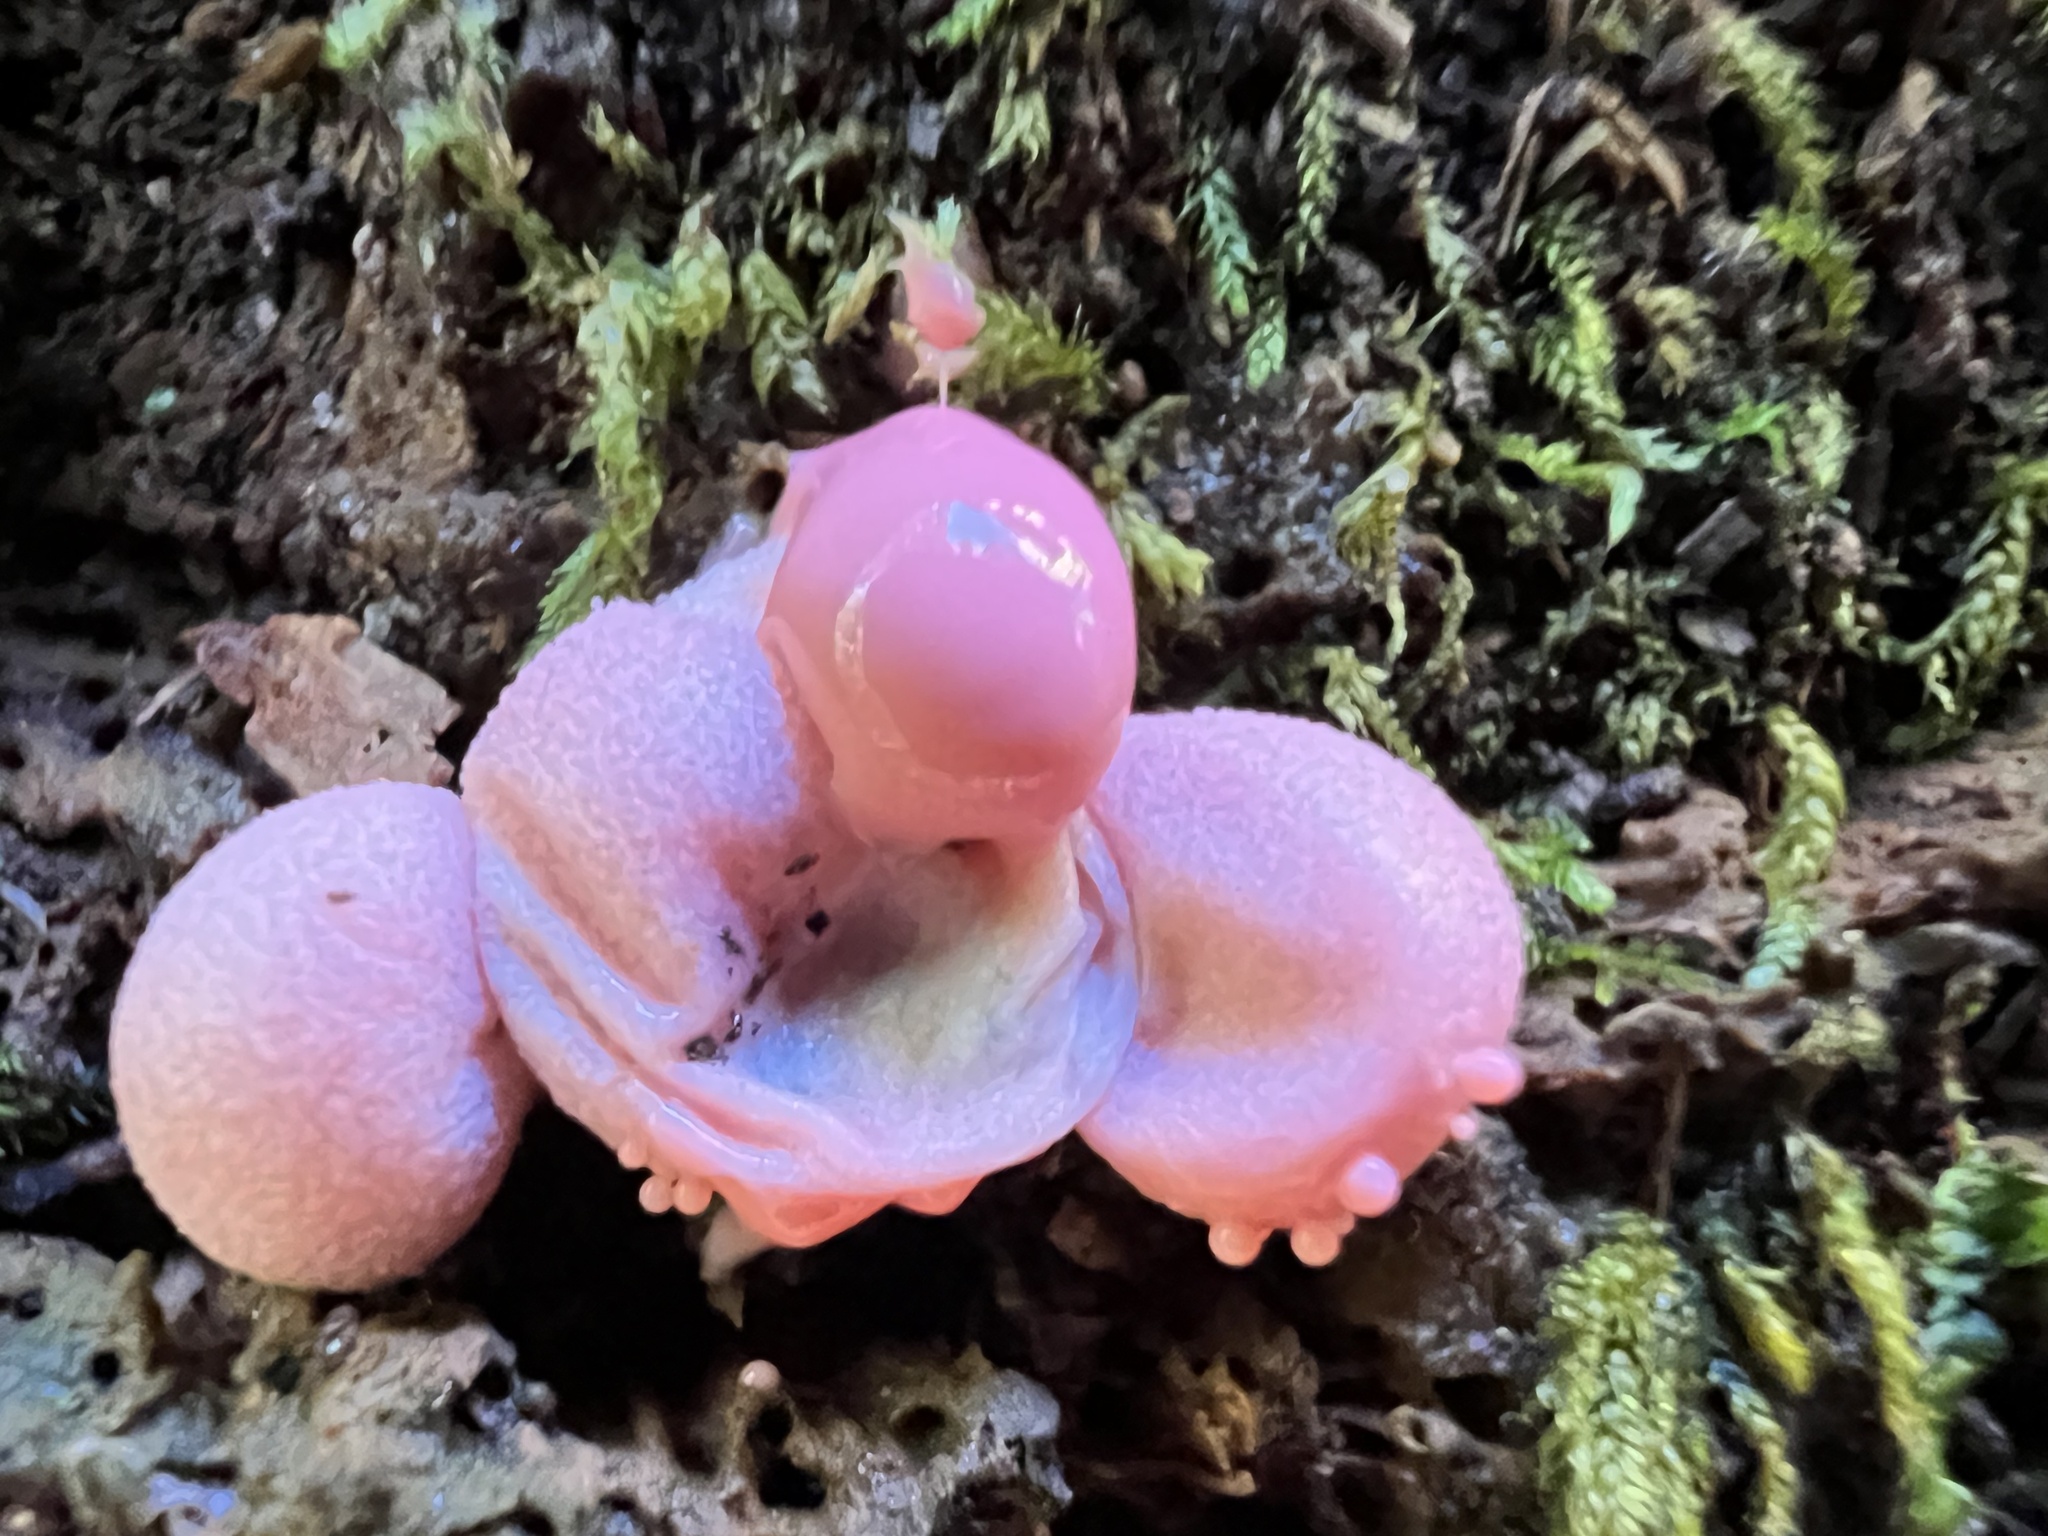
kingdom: Protozoa
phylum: Mycetozoa
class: Myxomycetes
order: Cribrariales
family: Tubiferaceae
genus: Lycogala
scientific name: Lycogala epidendrum
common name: Wolf's milk
